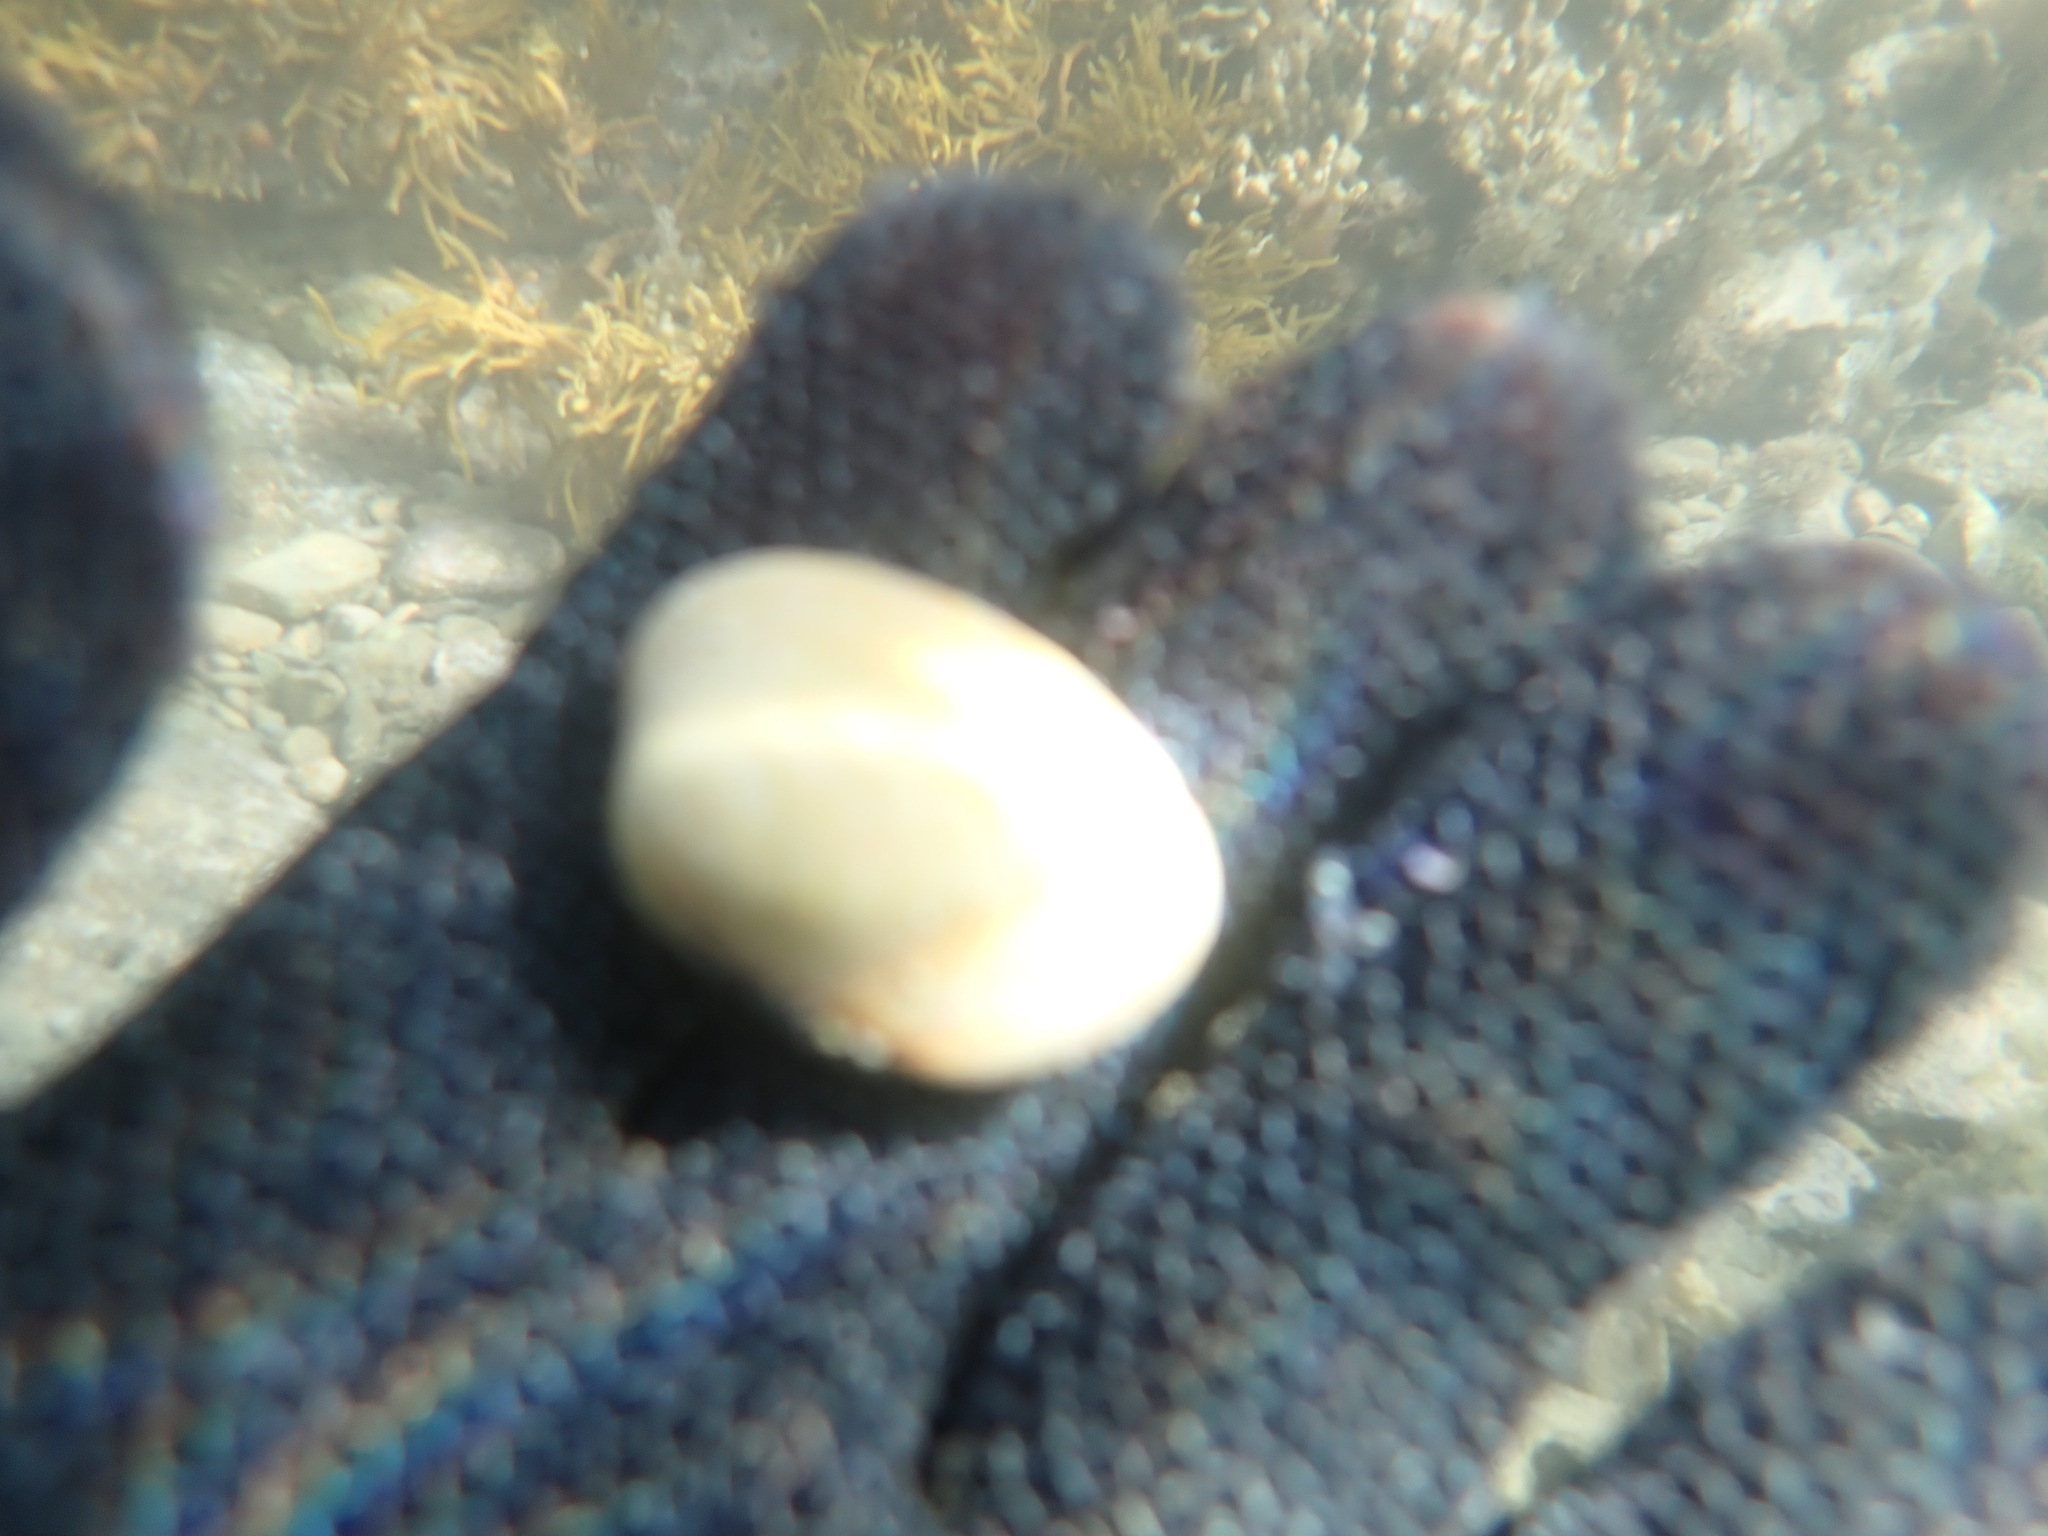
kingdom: Animalia
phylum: Mollusca
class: Bivalvia
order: Venerida
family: Veneridae
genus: Venerupis
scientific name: Venerupis largillierti
